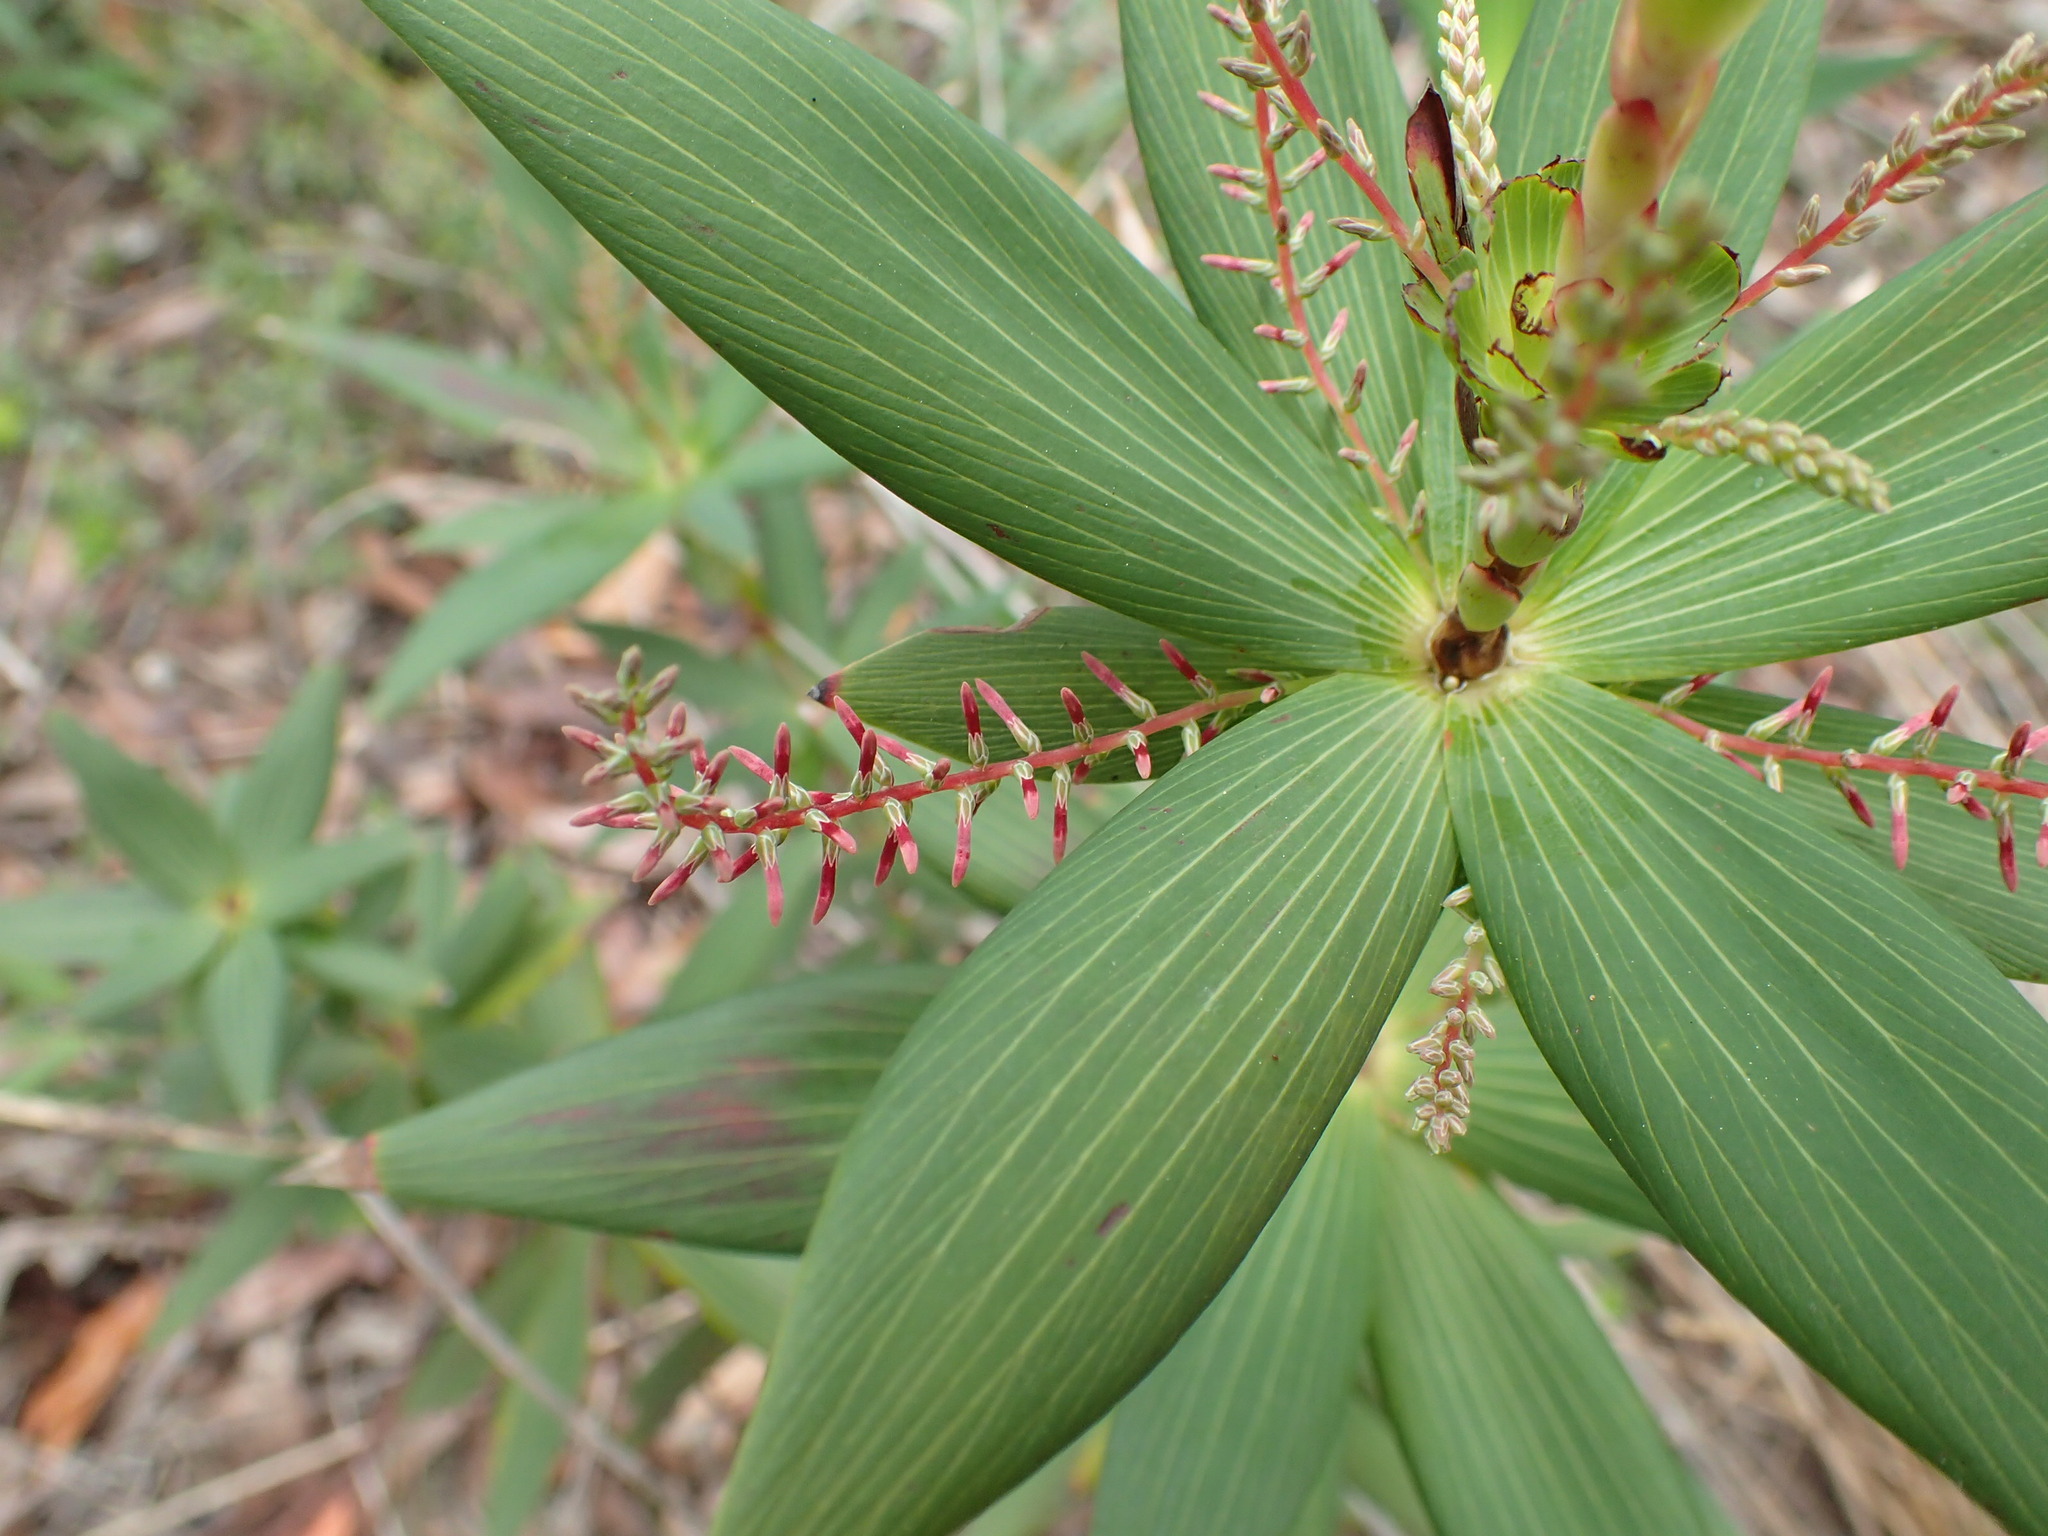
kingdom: Plantae
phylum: Tracheophyta
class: Magnoliopsida
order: Ericales
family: Ericaceae
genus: Leucopogon
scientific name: Leucopogon verticillatus
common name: Tasselshrub
